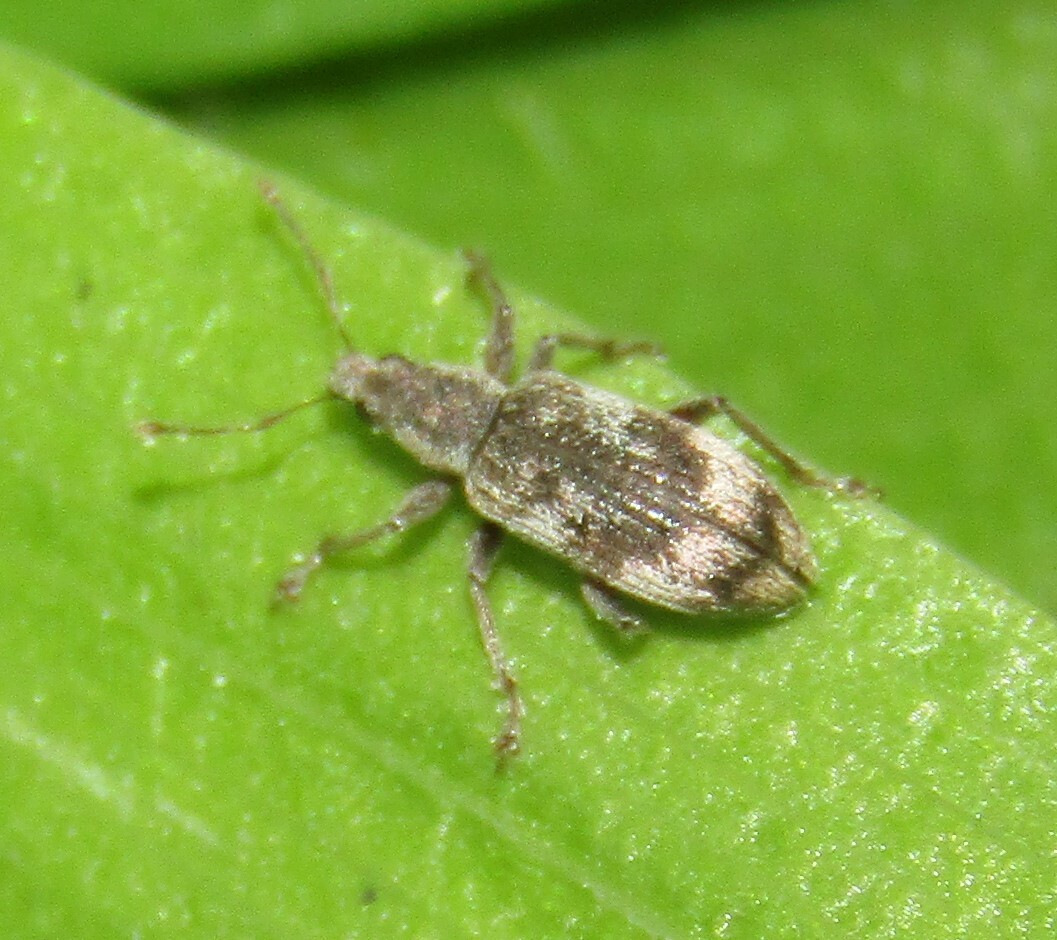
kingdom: Animalia
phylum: Arthropoda
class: Insecta
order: Coleoptera
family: Curculionidae
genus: Polydrusus
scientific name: Polydrusus tereticollis
